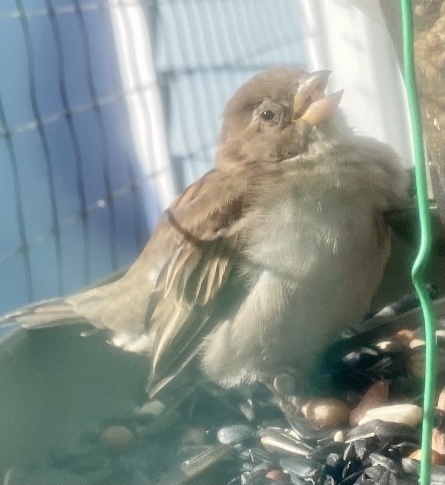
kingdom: Animalia
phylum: Chordata
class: Aves
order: Passeriformes
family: Passeridae
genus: Passer
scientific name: Passer domesticus
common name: House sparrow
